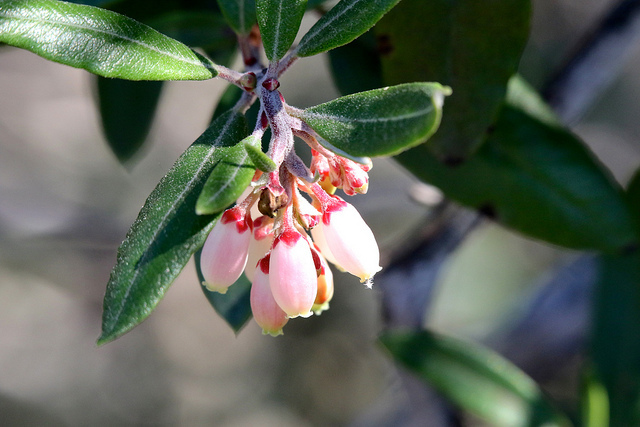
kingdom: Plantae
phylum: Tracheophyta
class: Magnoliopsida
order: Ericales
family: Ericaceae
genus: Arctostaphylos
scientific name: Arctostaphylos bicolor
